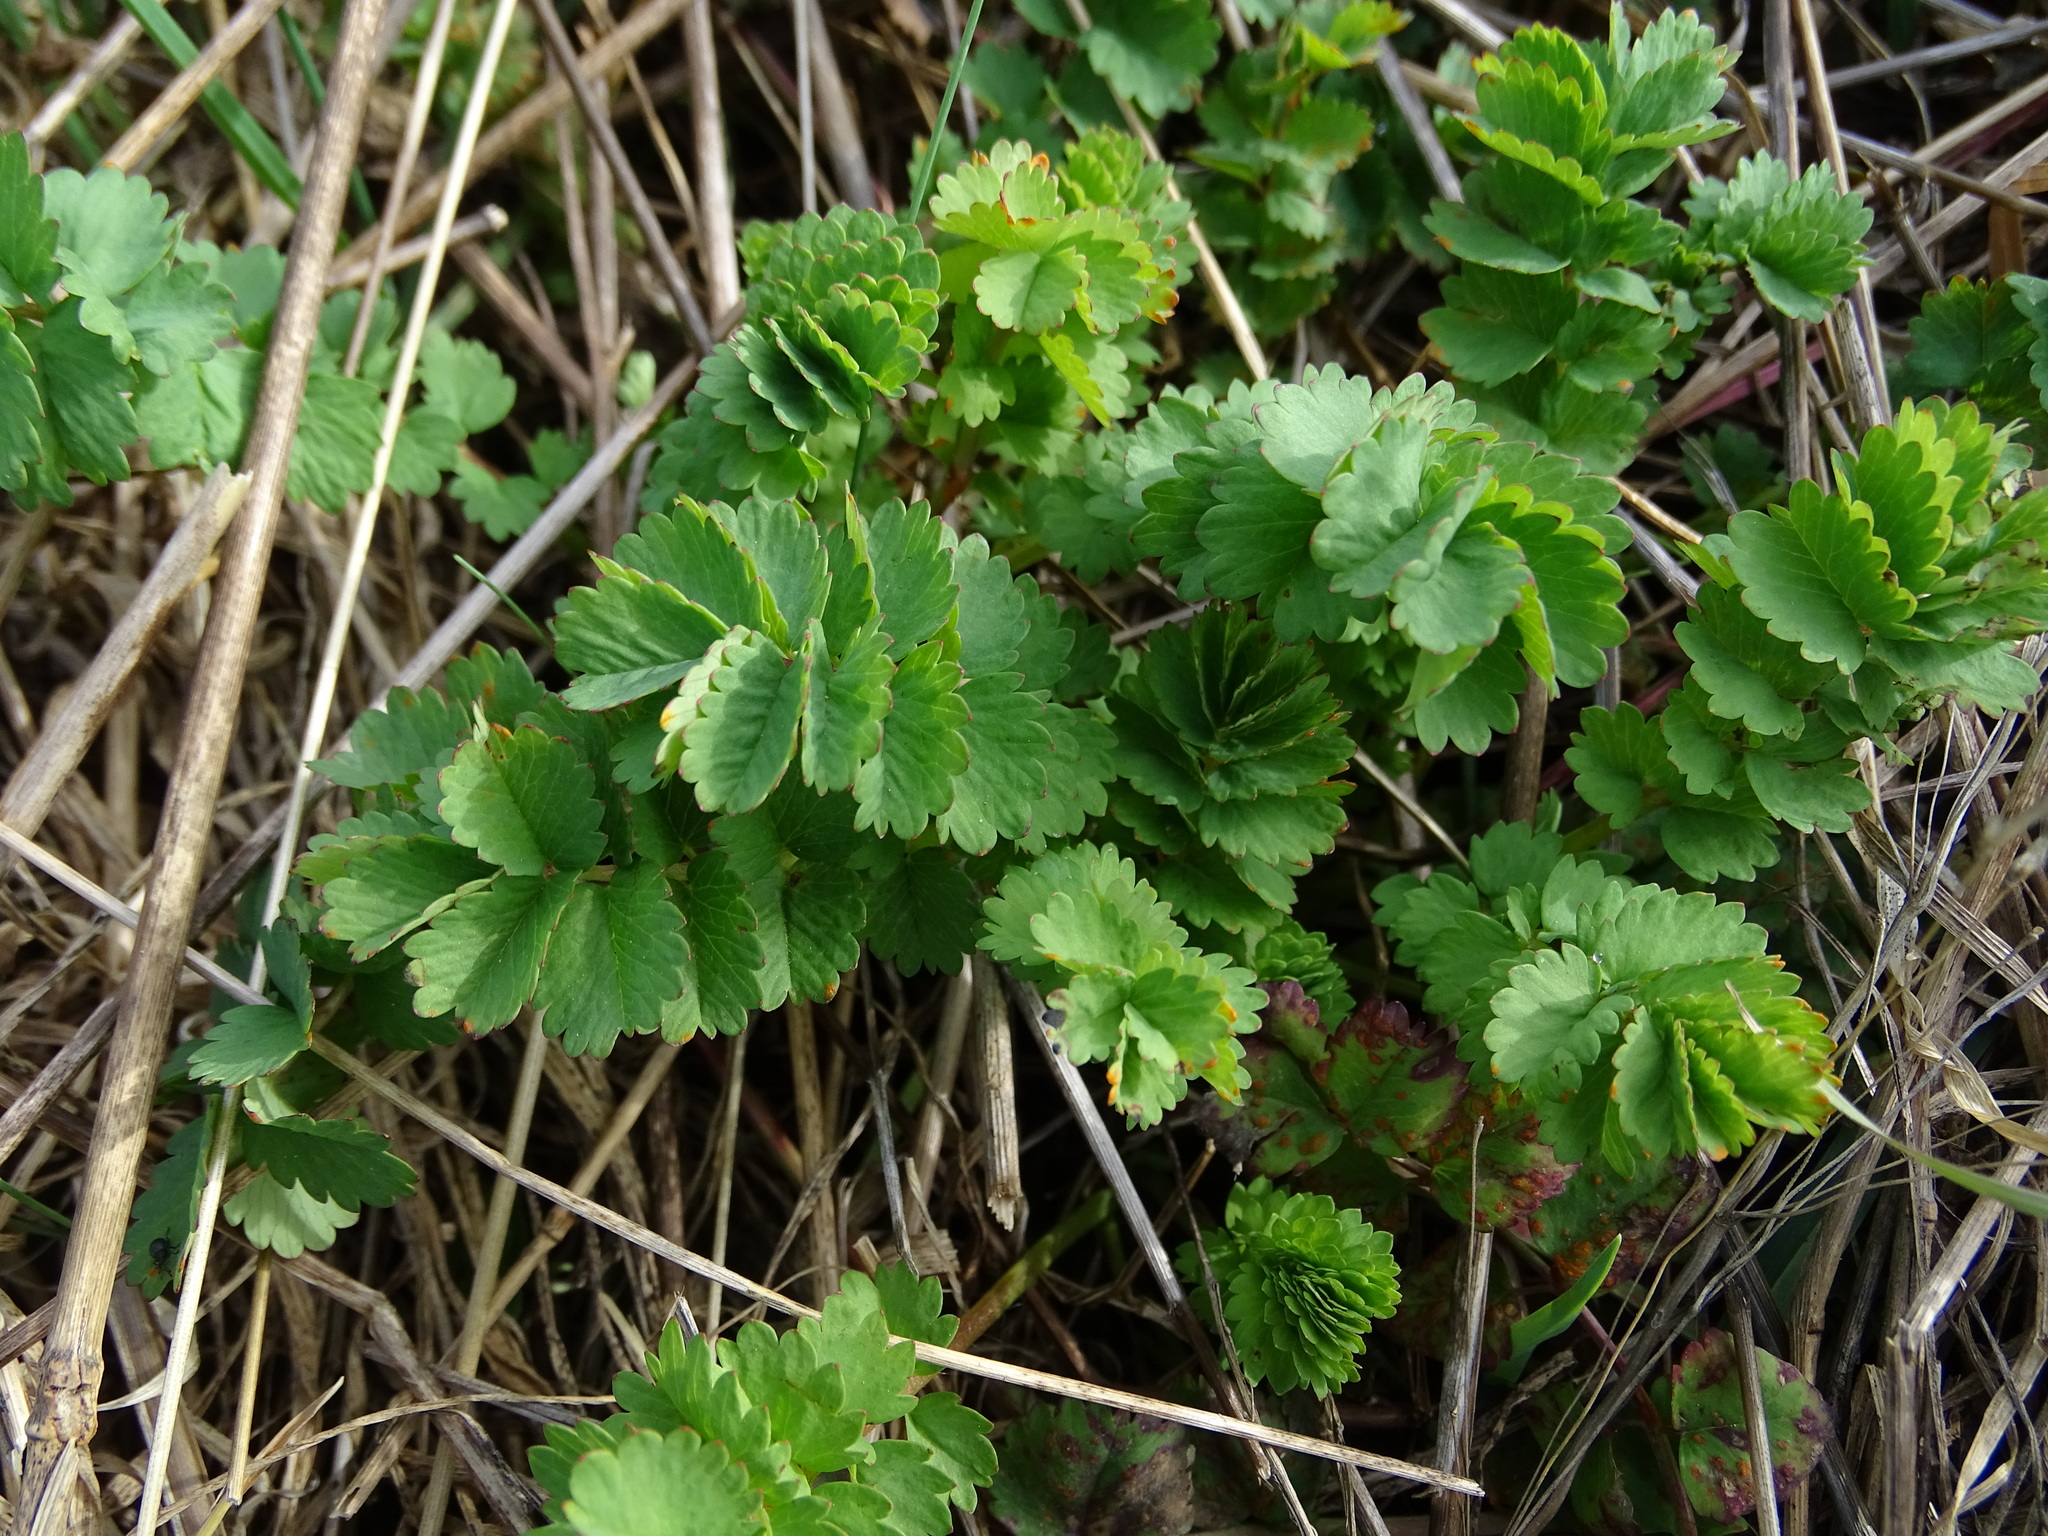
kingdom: Plantae
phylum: Tracheophyta
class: Magnoliopsida
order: Rosales
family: Rosaceae
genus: Poterium
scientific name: Poterium sanguisorba
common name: Salad burnet
